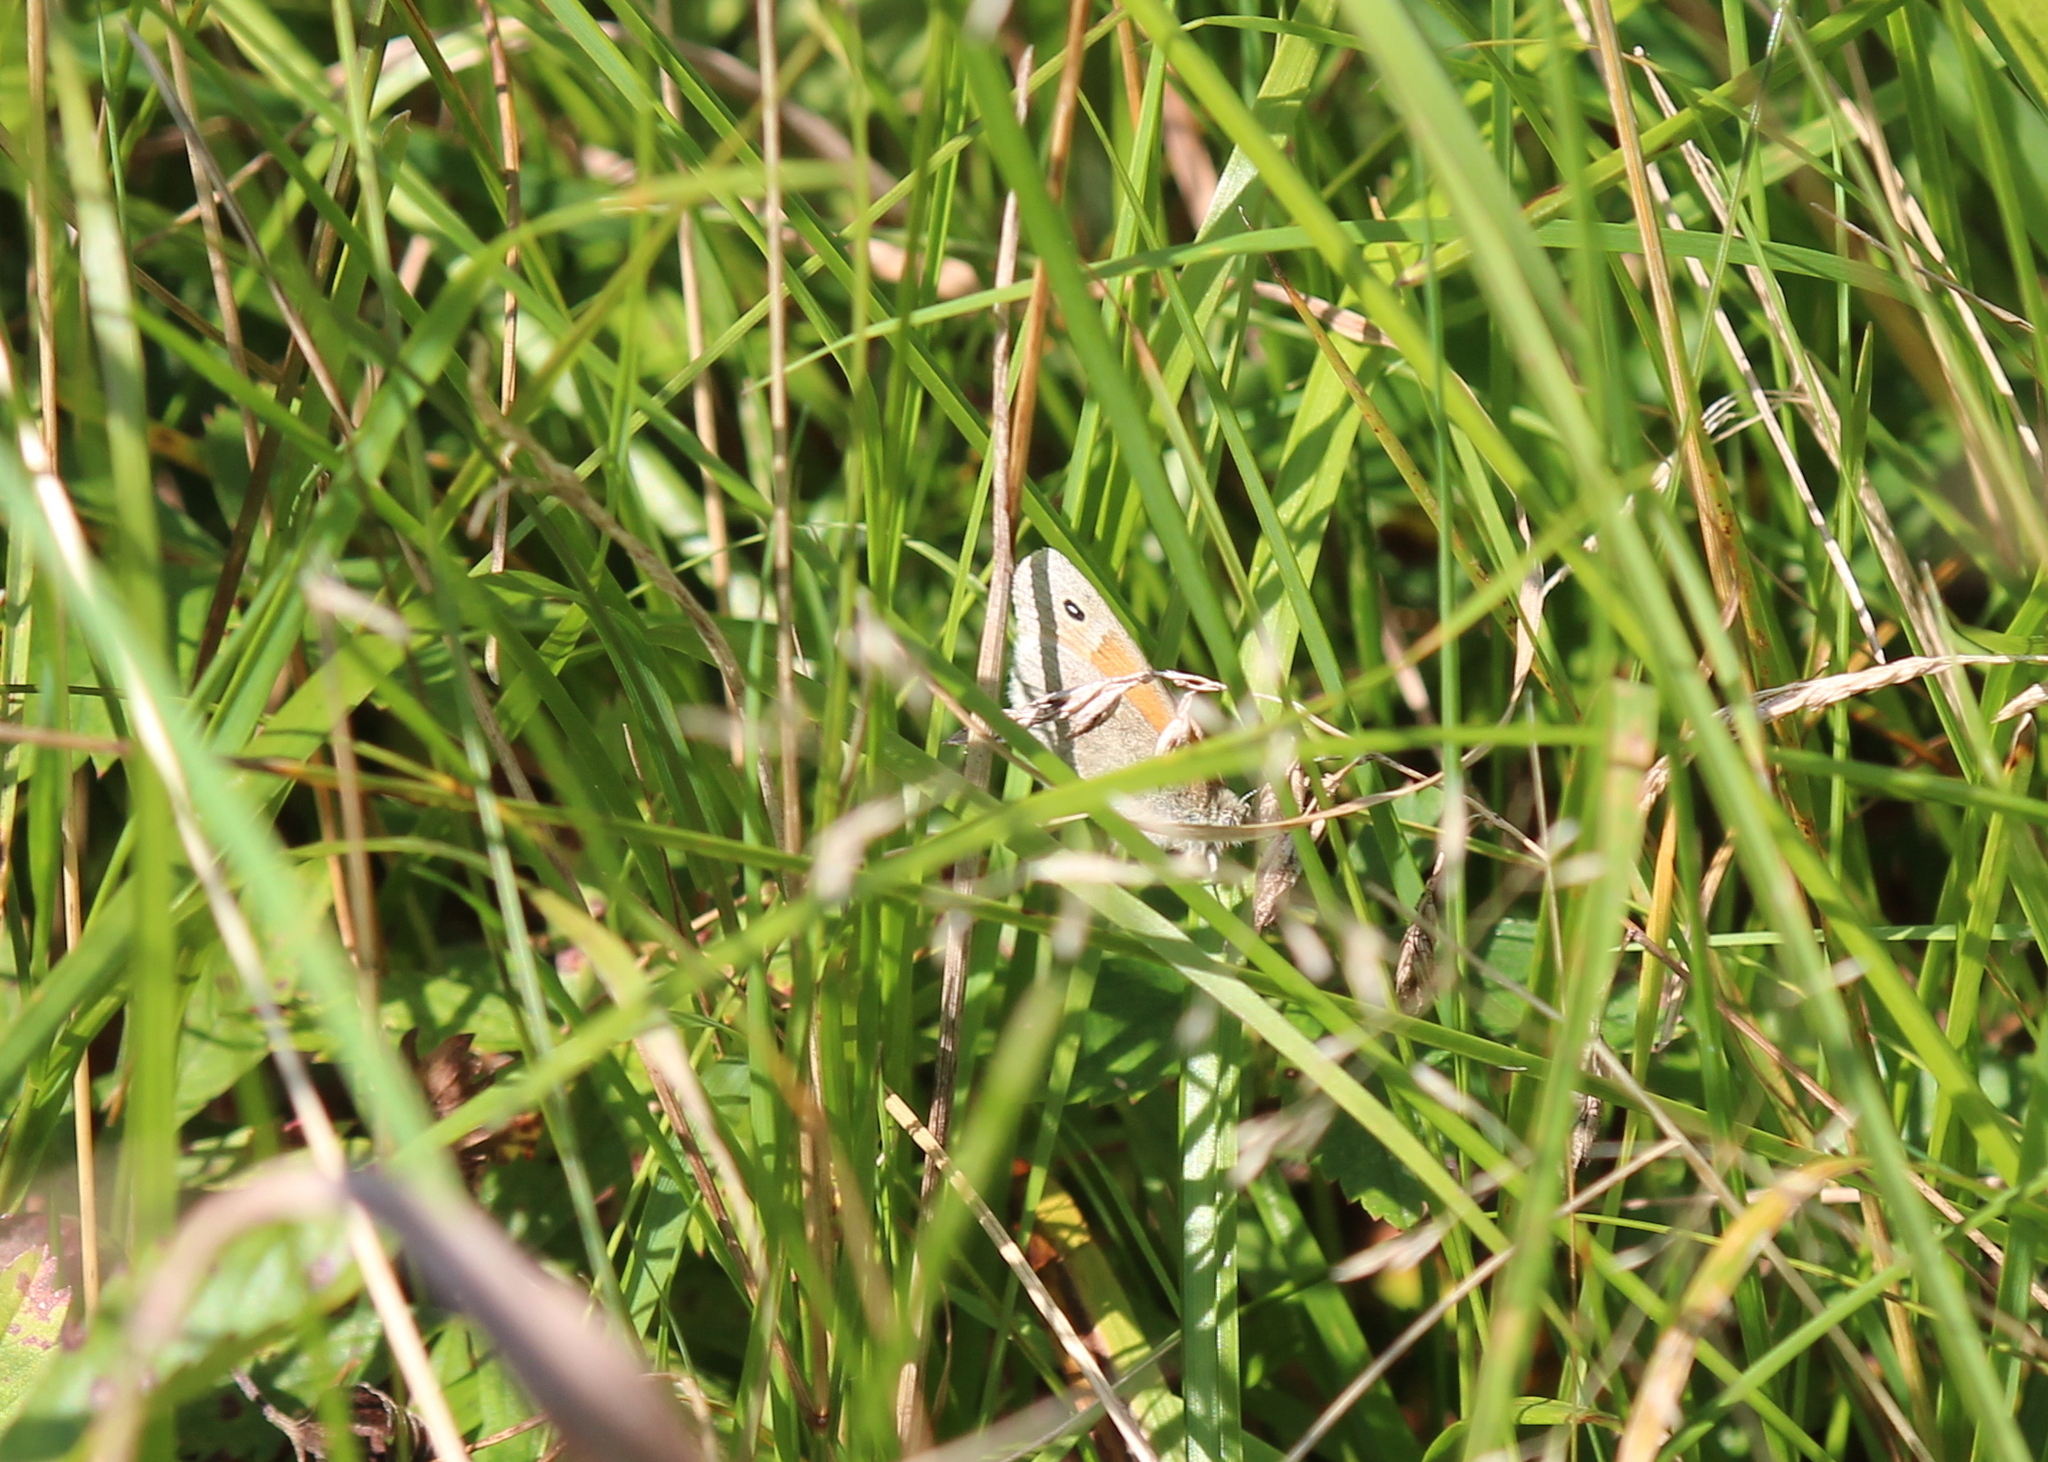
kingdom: Animalia
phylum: Arthropoda
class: Insecta
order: Lepidoptera
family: Nymphalidae
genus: Coenonympha
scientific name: Coenonympha california
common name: Common ringlet
